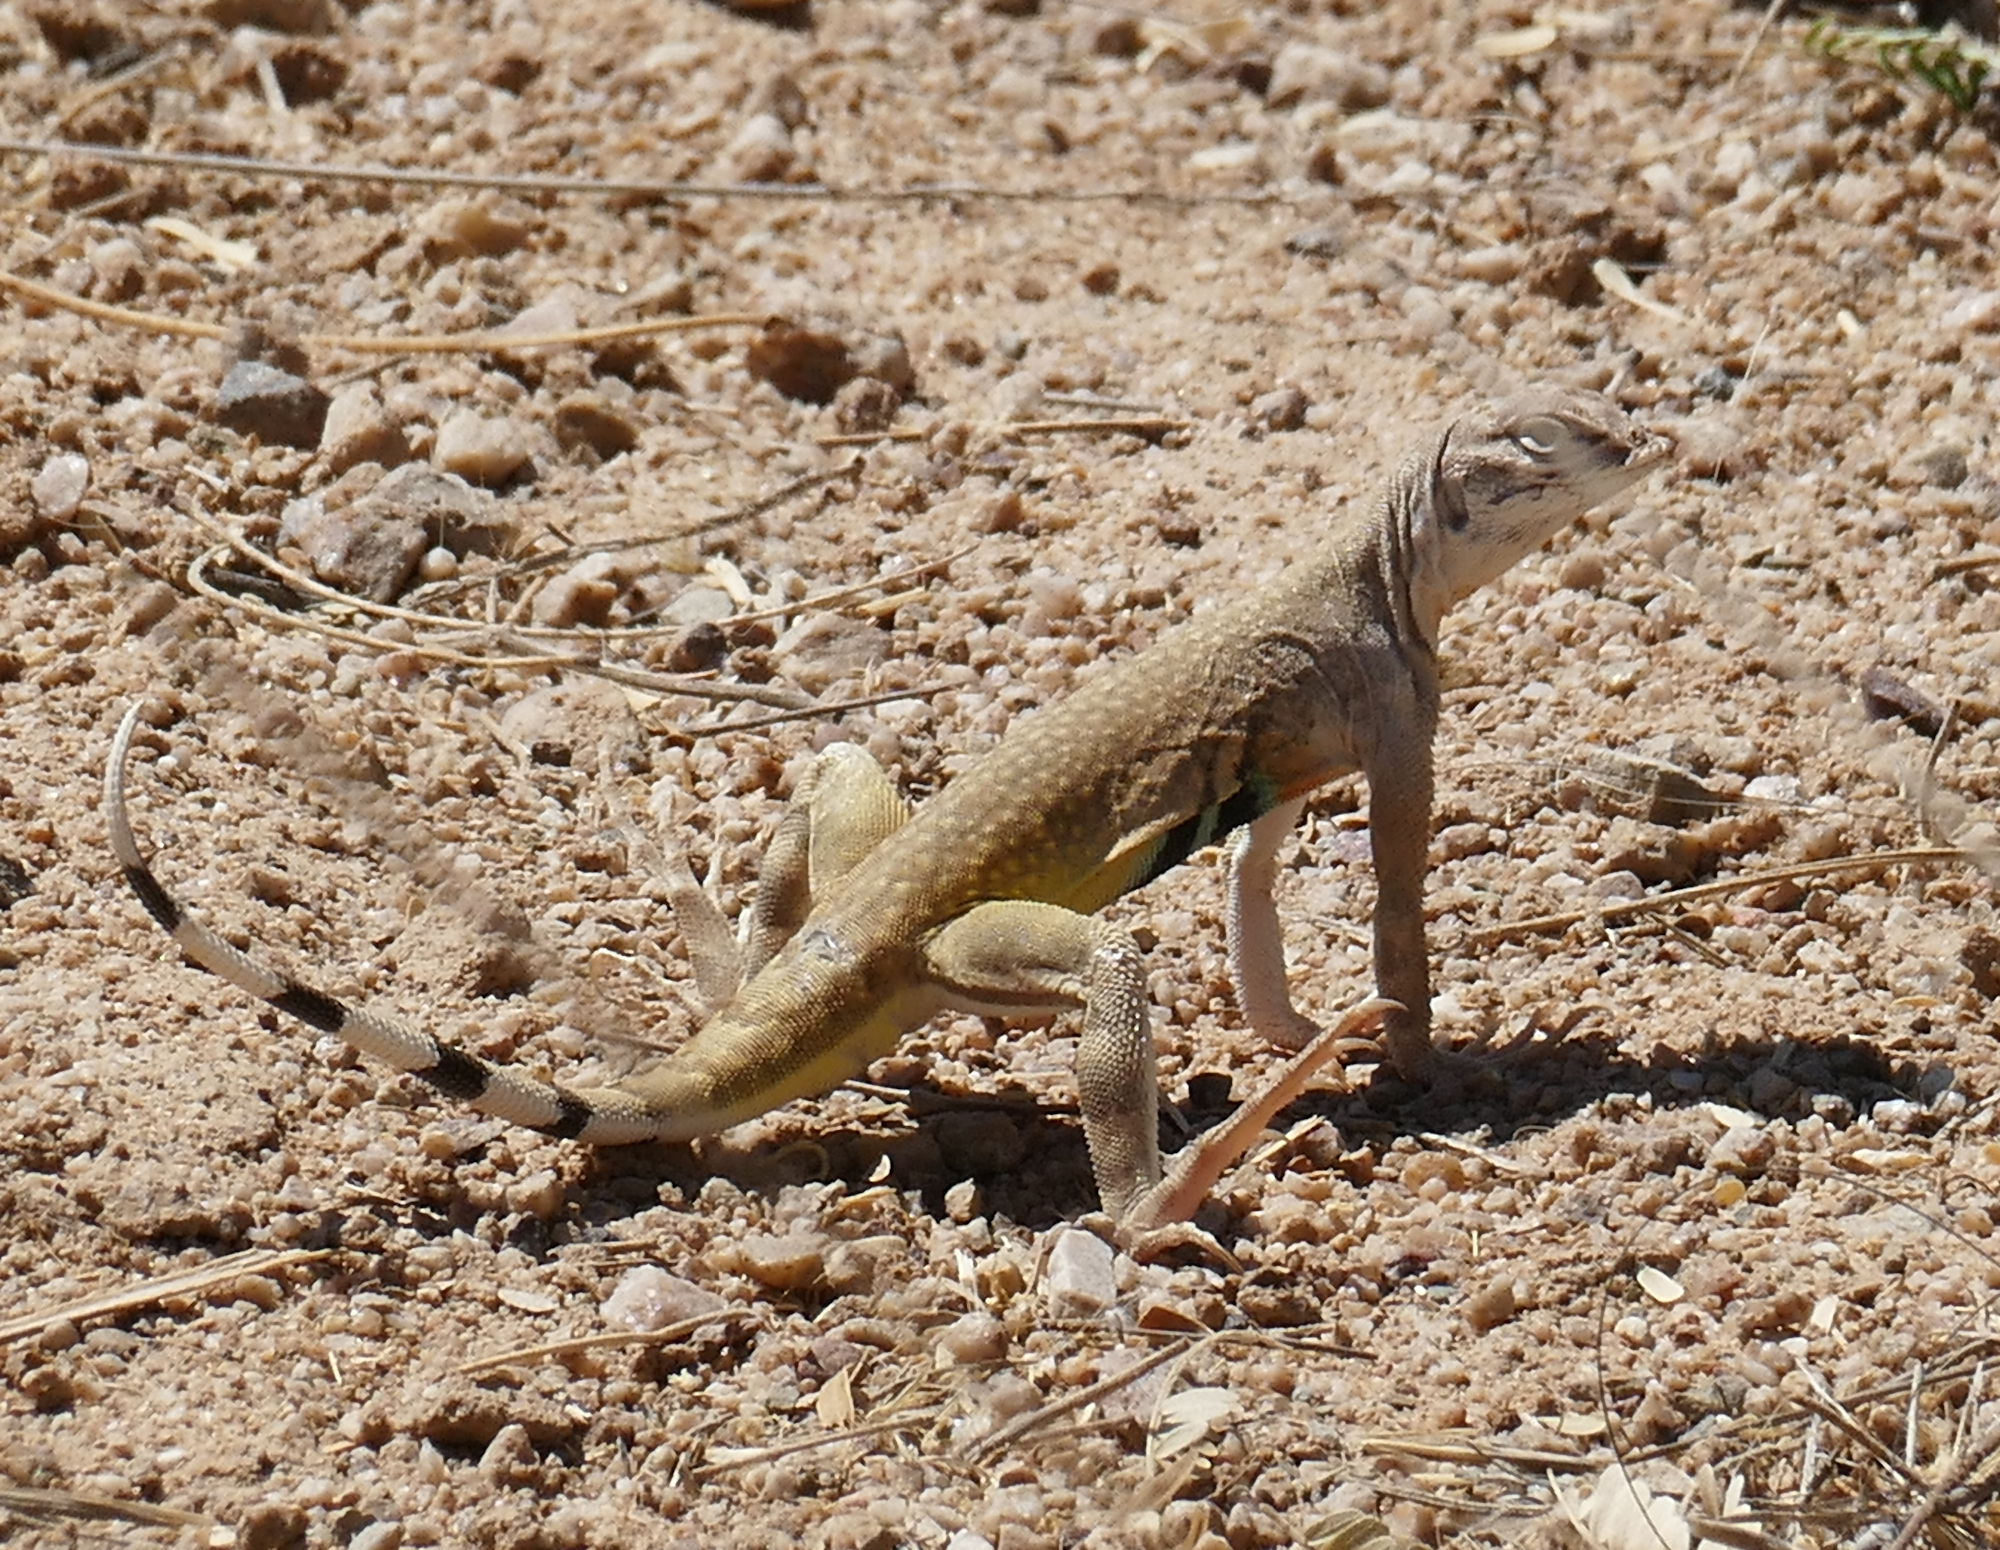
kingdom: Animalia
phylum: Chordata
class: Squamata
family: Phrynosomatidae
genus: Callisaurus
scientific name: Callisaurus draconoides
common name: Zebra-tailed lizard
